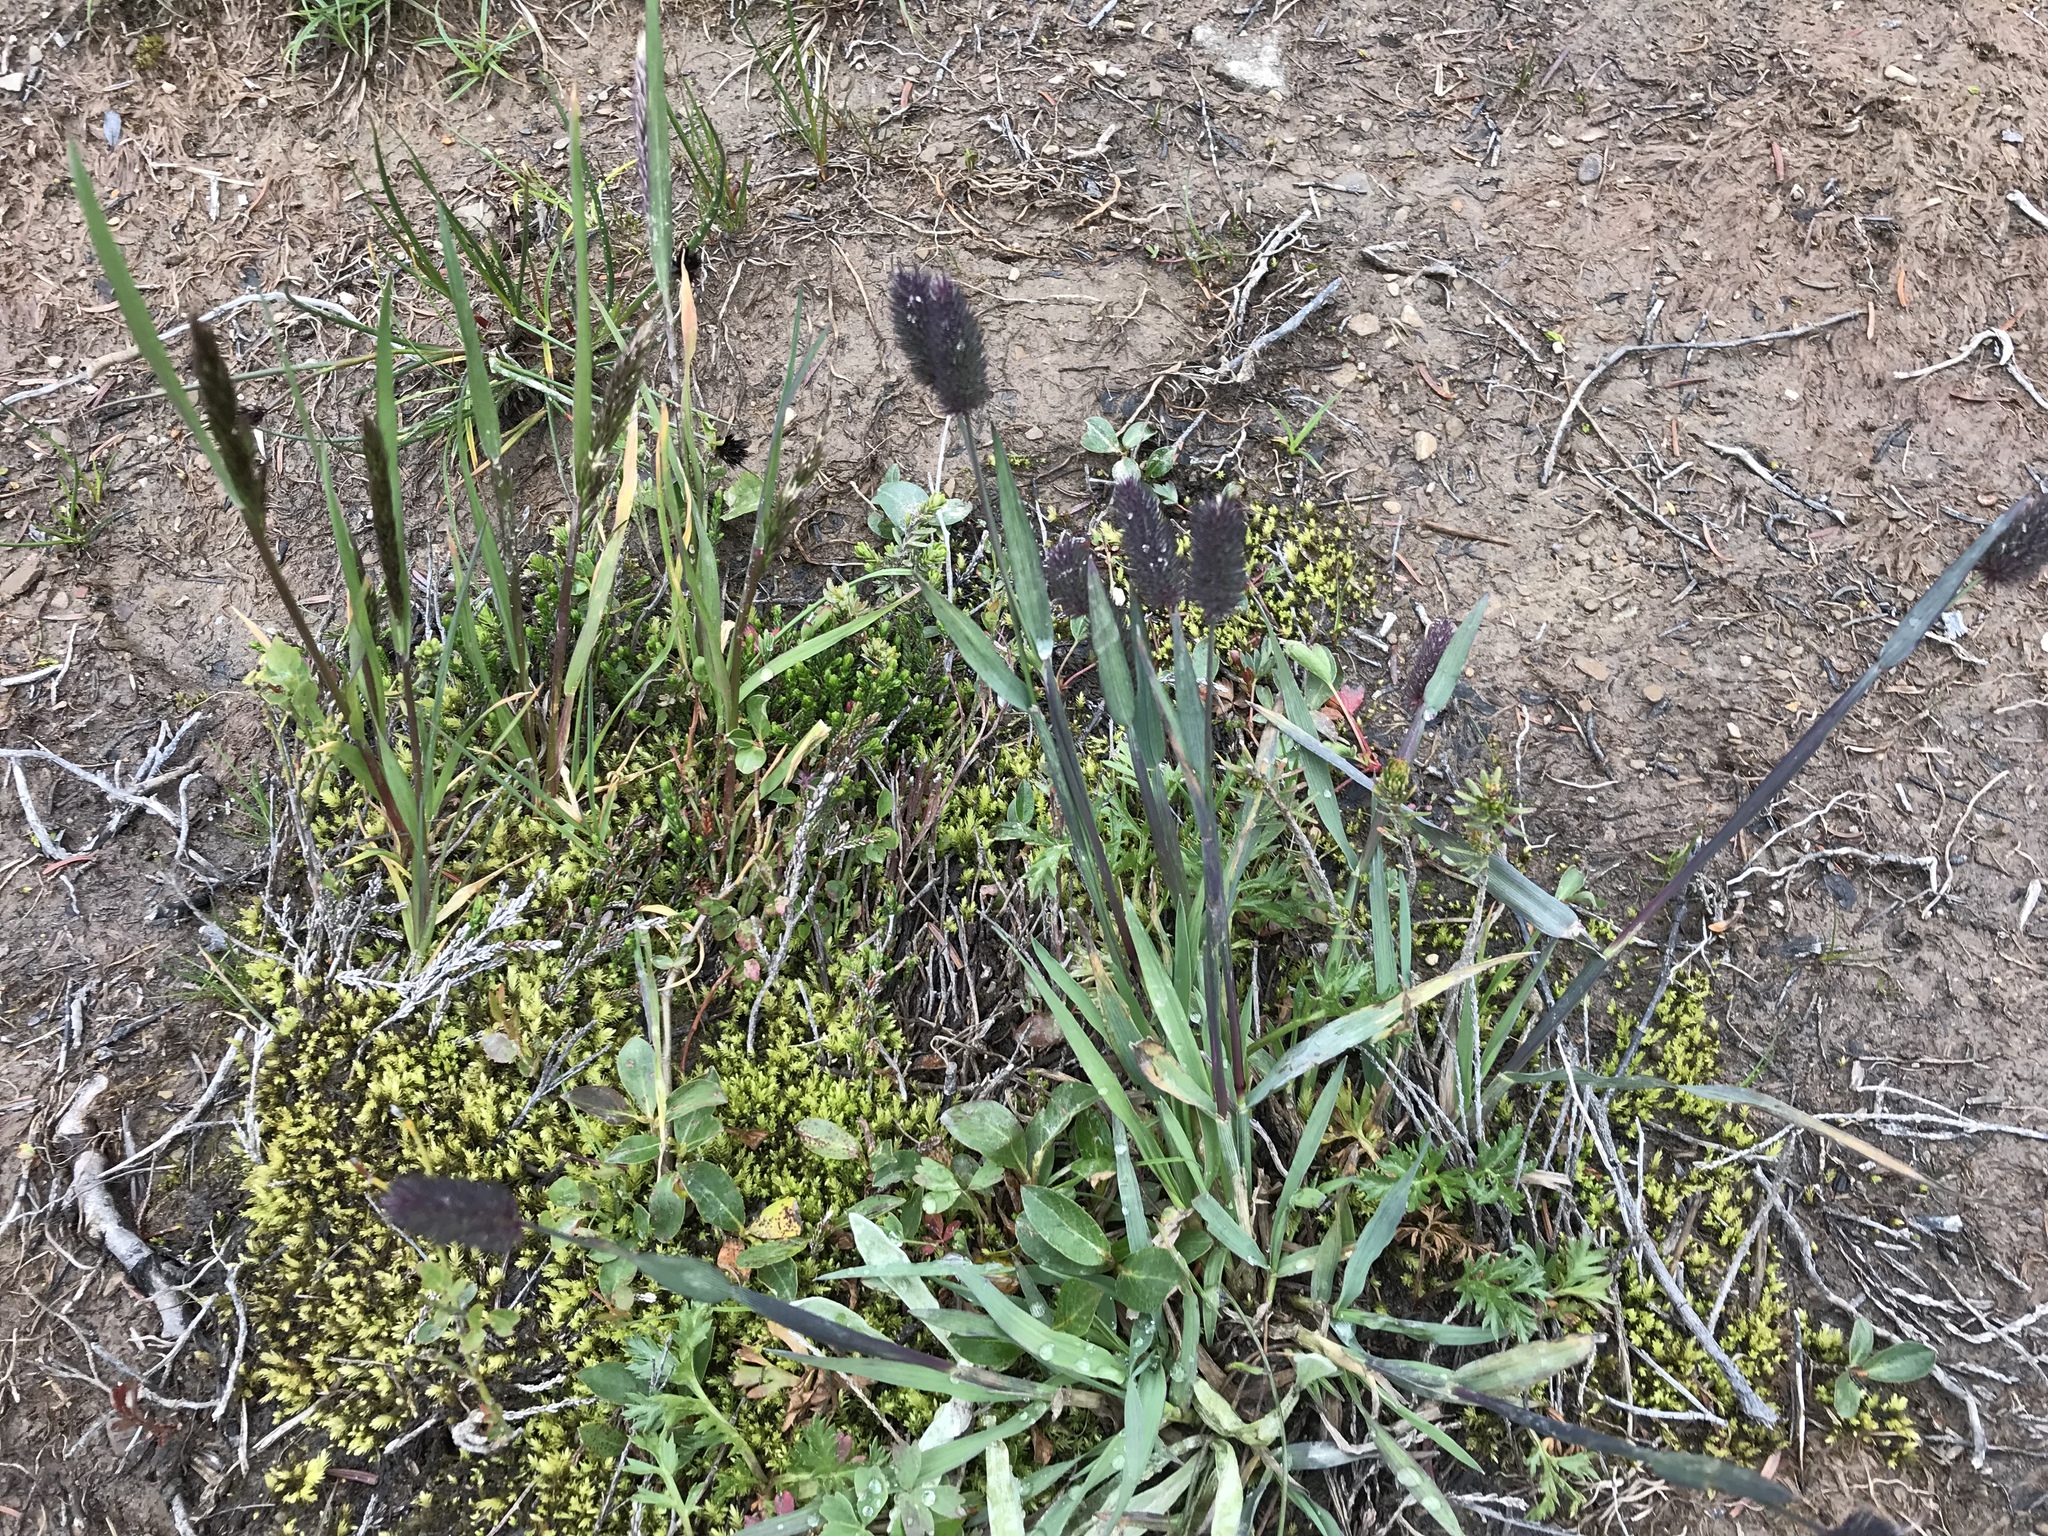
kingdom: Plantae
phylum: Tracheophyta
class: Liliopsida
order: Poales
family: Poaceae
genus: Phleum
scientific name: Phleum alpinum
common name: Alpine cat's-tail
